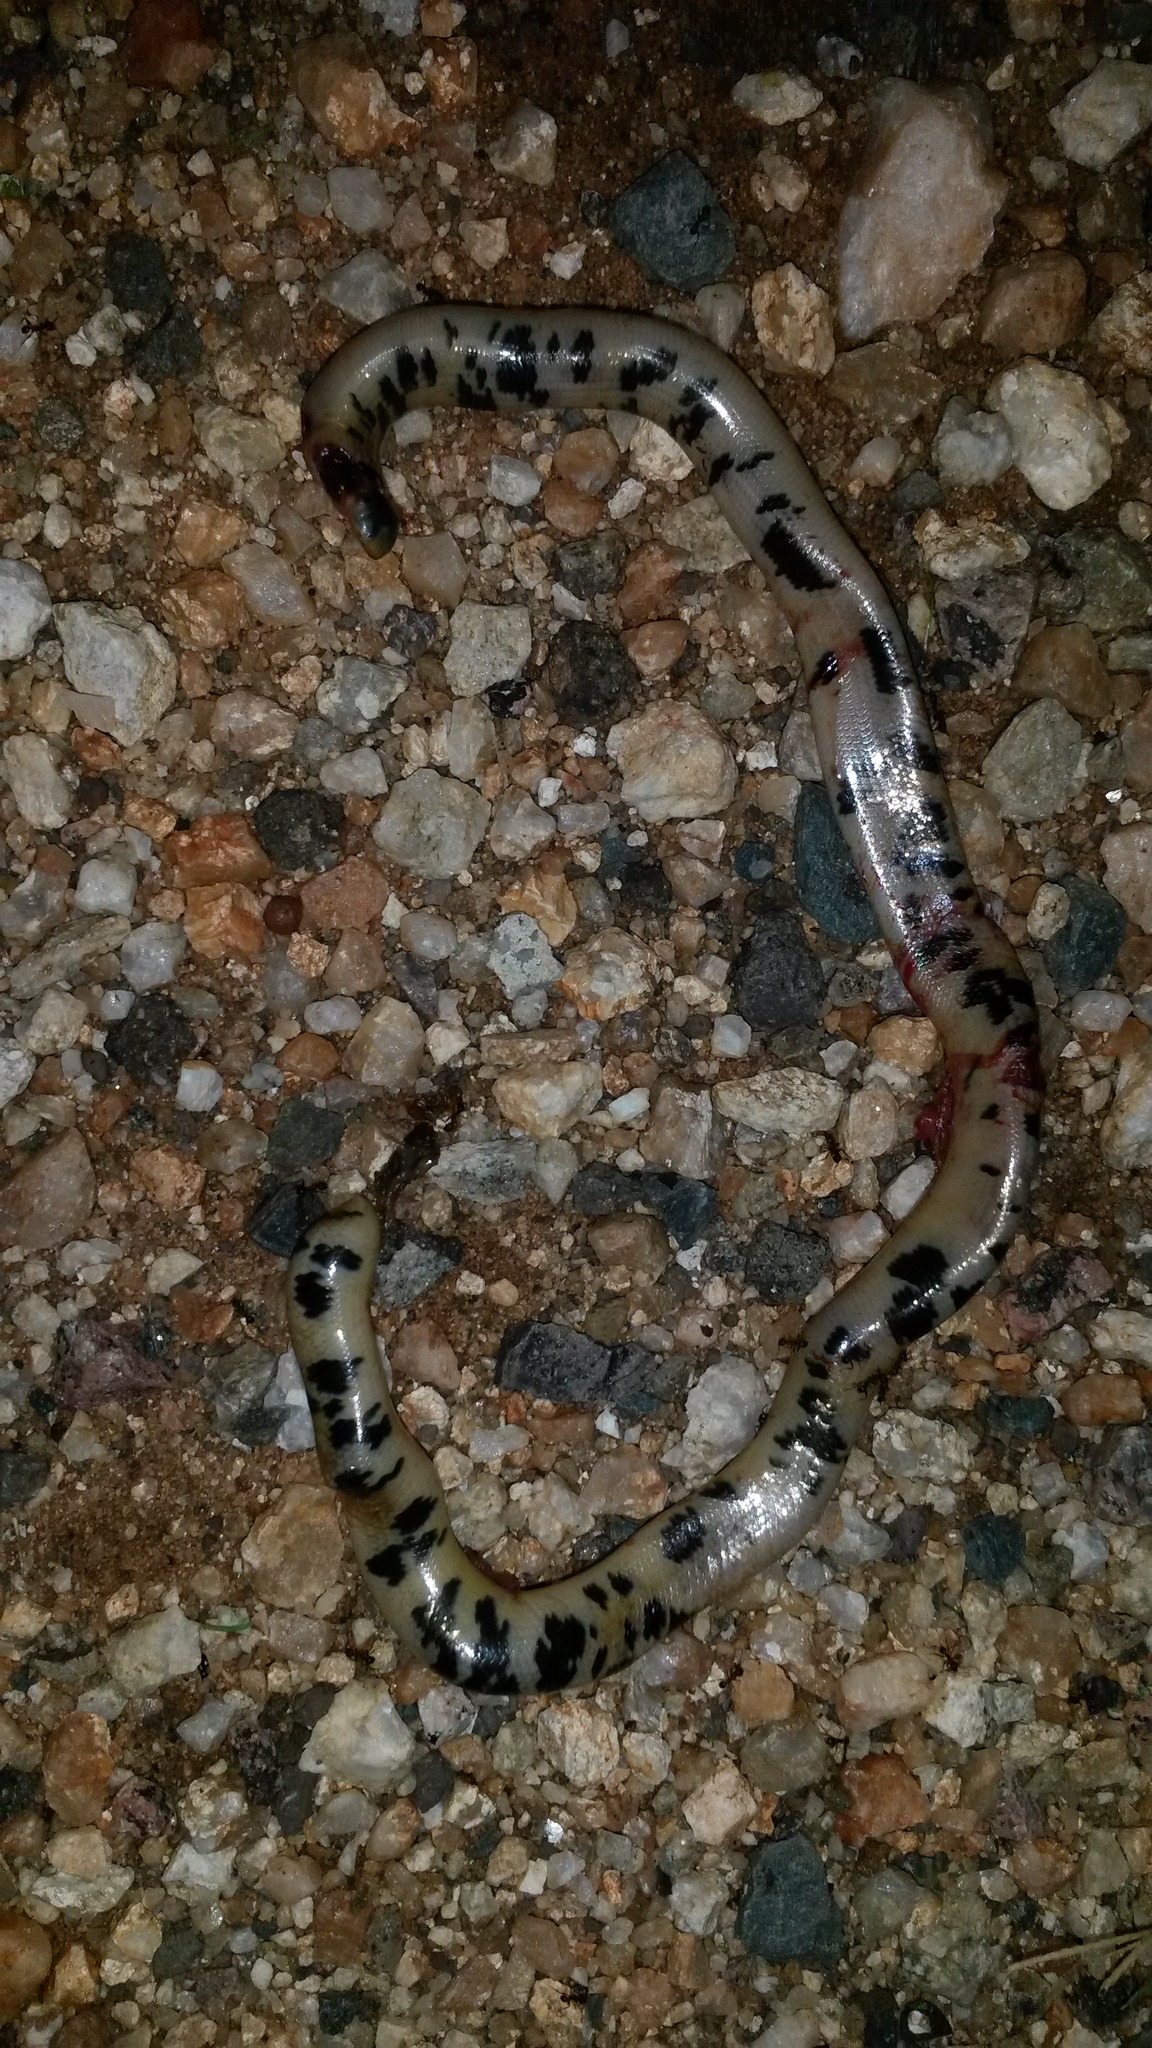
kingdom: Animalia
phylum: Chordata
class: Squamata
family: Typhlopidae
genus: Afrotyphlops
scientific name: Afrotyphlops mucruso
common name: Zambezi blind snake
